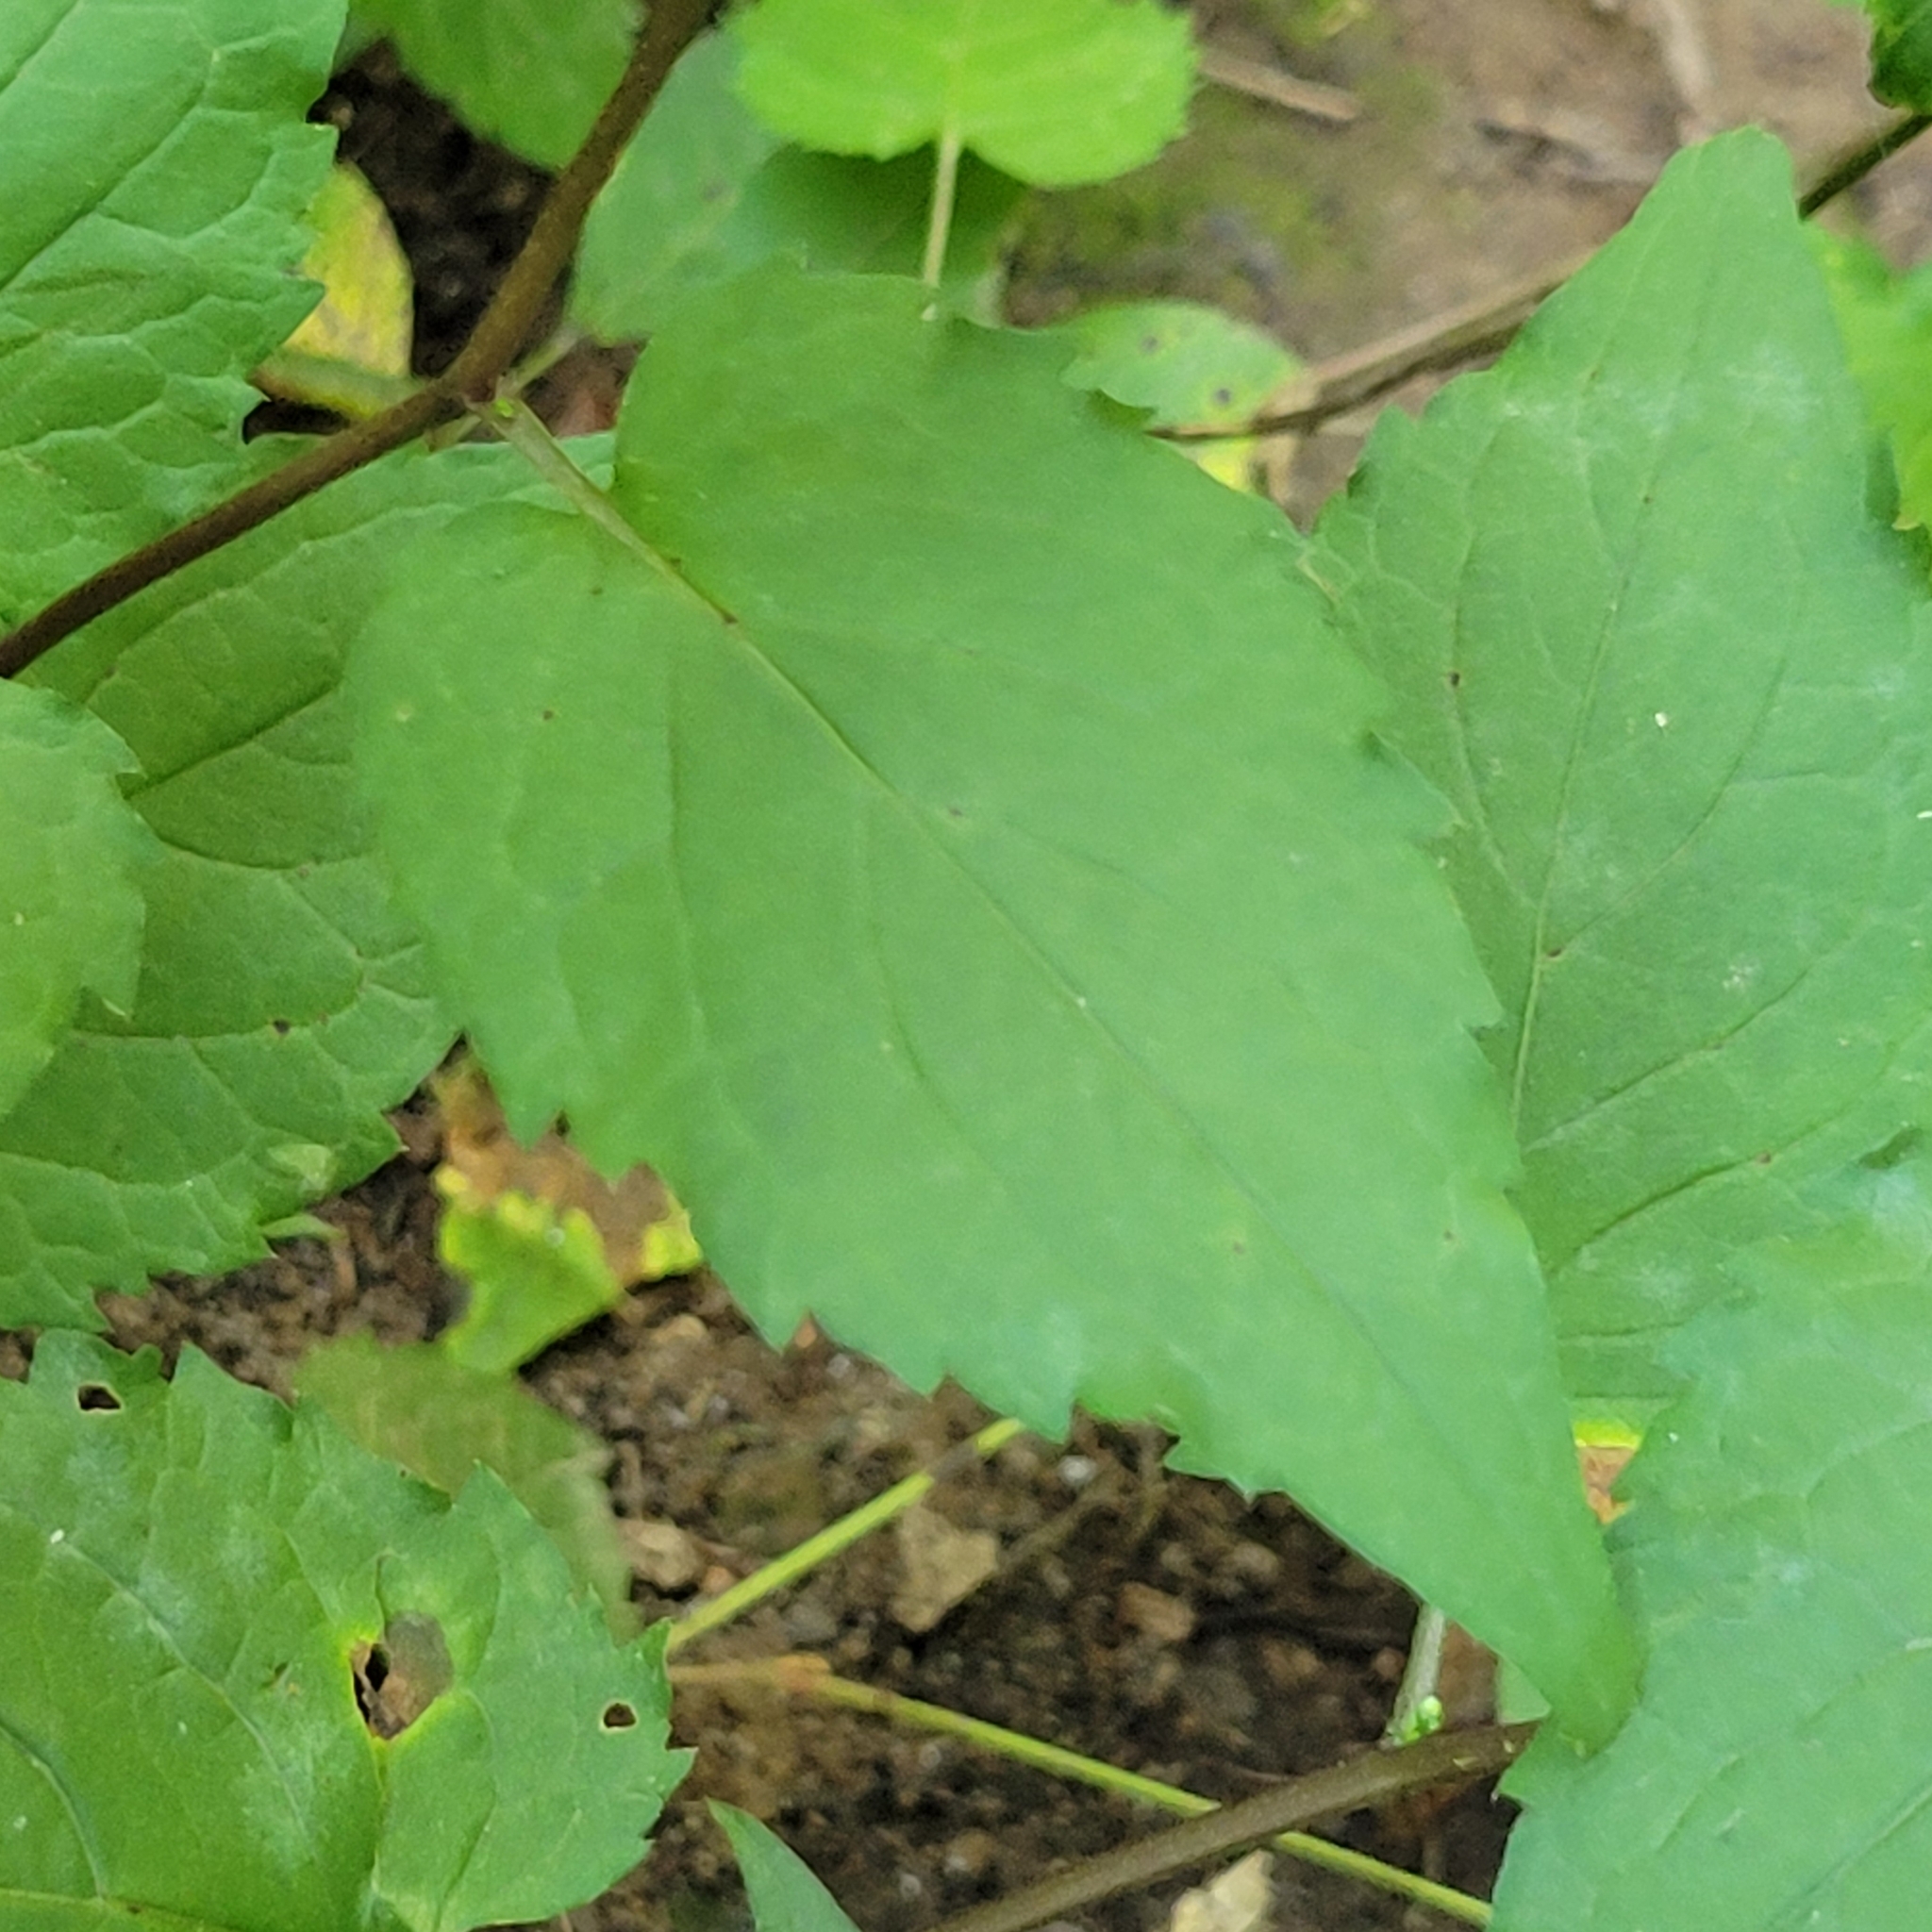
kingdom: Plantae
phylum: Tracheophyta
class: Magnoliopsida
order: Asterales
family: Asteraceae
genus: Eurybia
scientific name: Eurybia divaricata
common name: White wood aster
